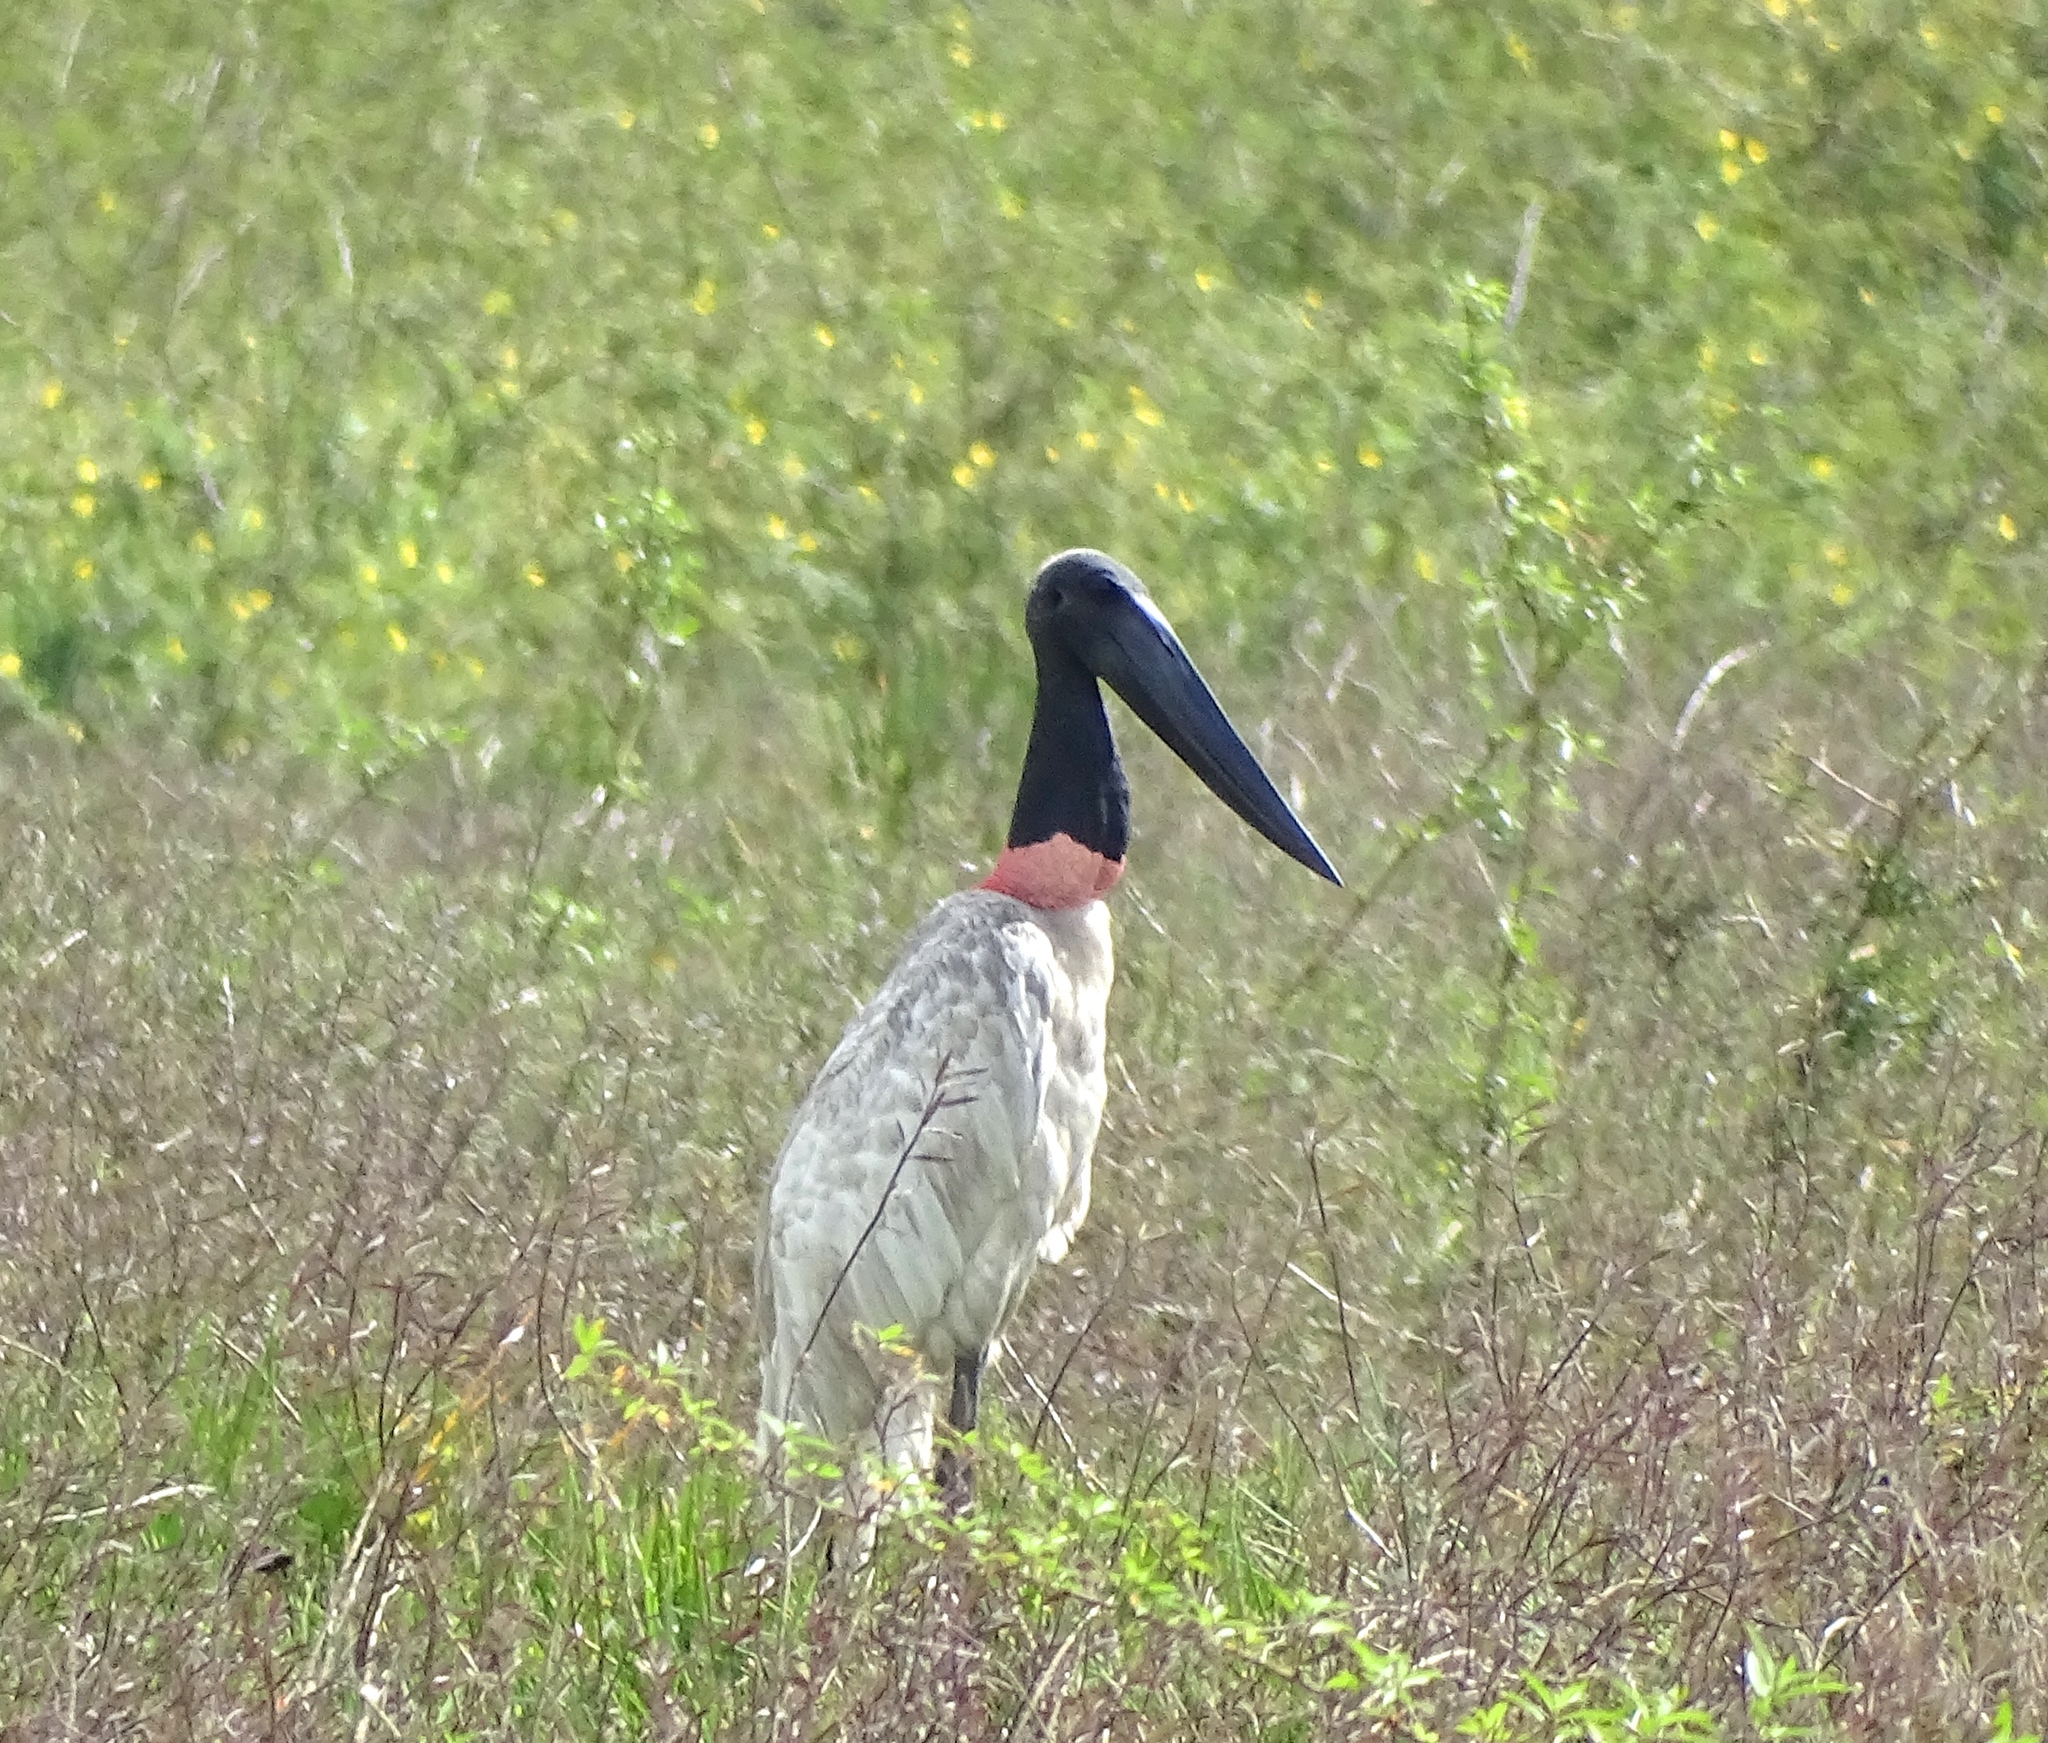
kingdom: Animalia
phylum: Chordata
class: Aves
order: Ciconiiformes
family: Ciconiidae
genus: Jabiru
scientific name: Jabiru mycteria
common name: Jabiru
